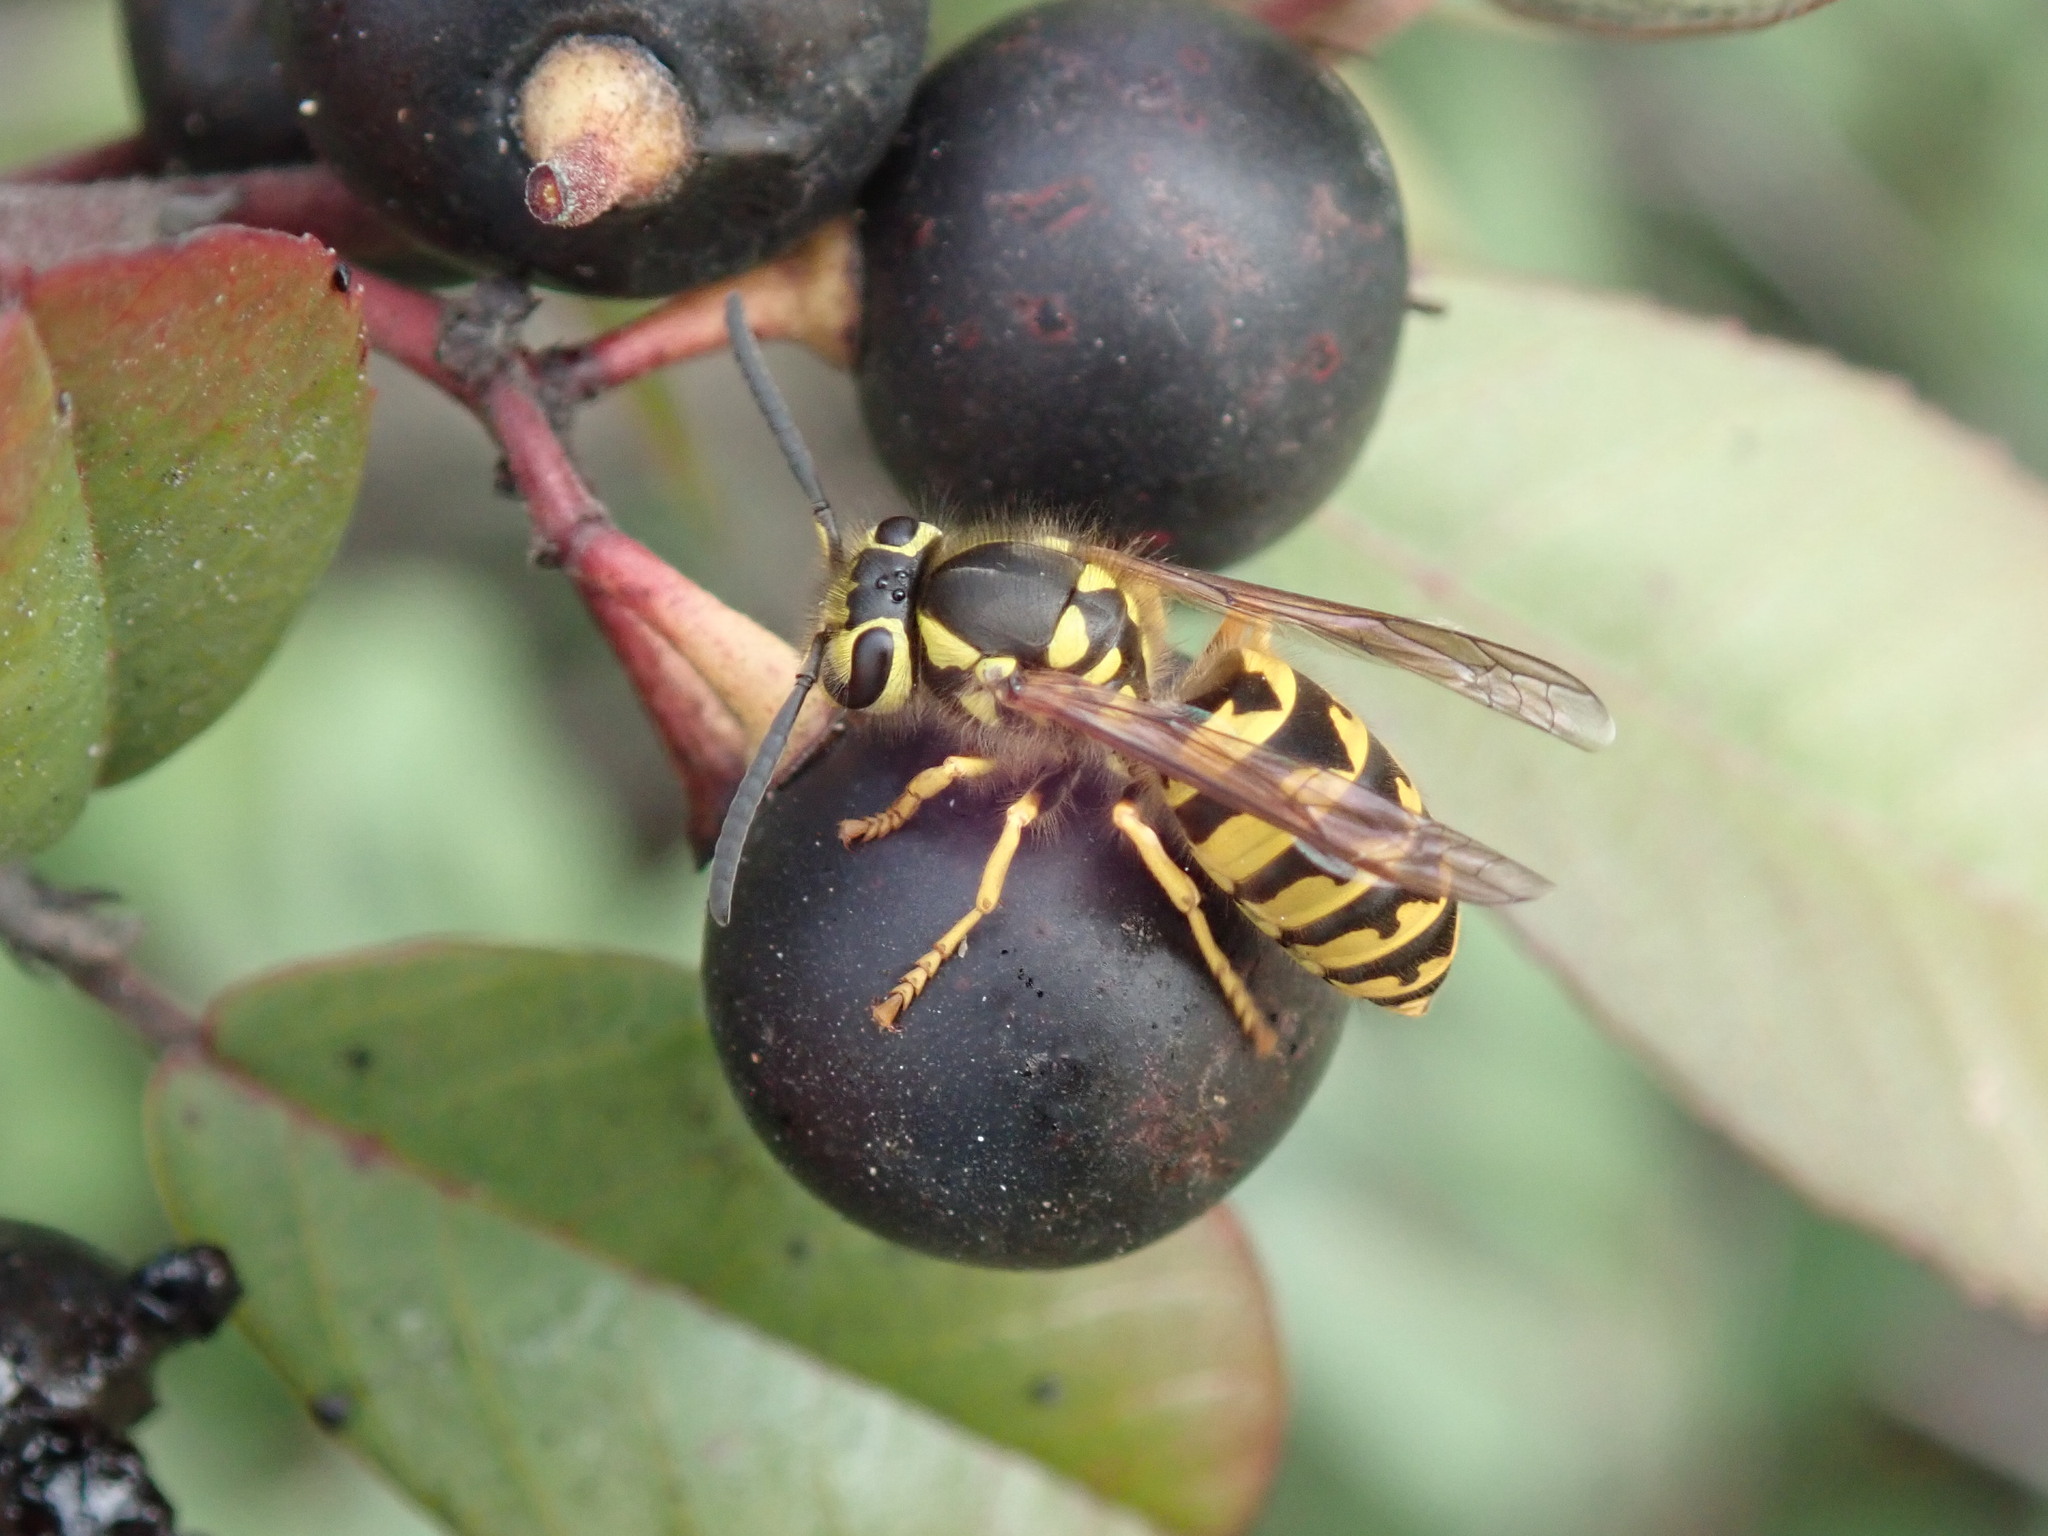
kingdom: Animalia
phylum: Arthropoda
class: Insecta
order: Hymenoptera
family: Vespidae
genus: Vespula
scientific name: Vespula pensylvanica
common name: Western yellowjacket
